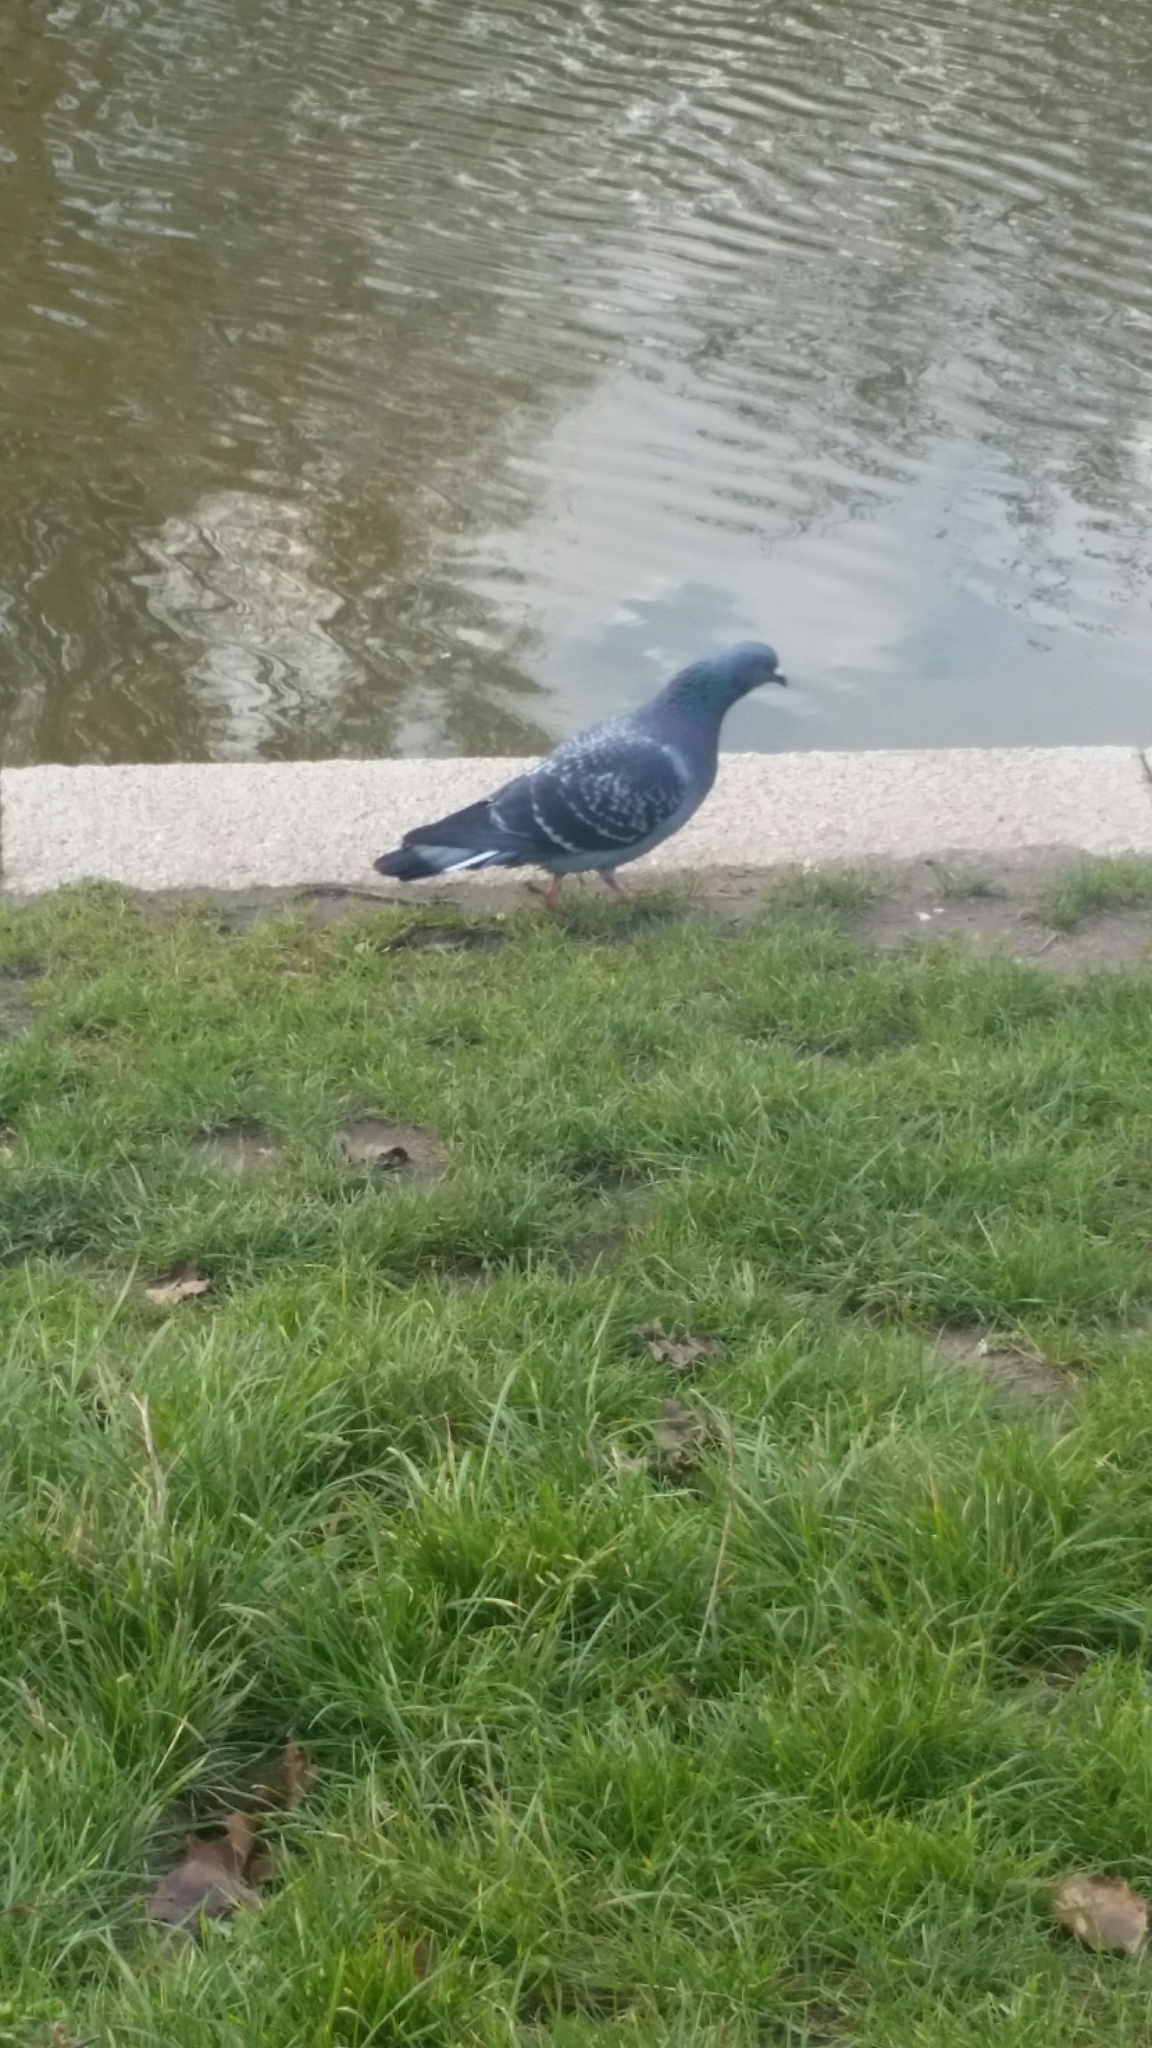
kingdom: Animalia
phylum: Chordata
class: Aves
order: Columbiformes
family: Columbidae
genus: Columba
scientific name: Columba livia
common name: Rock pigeon
